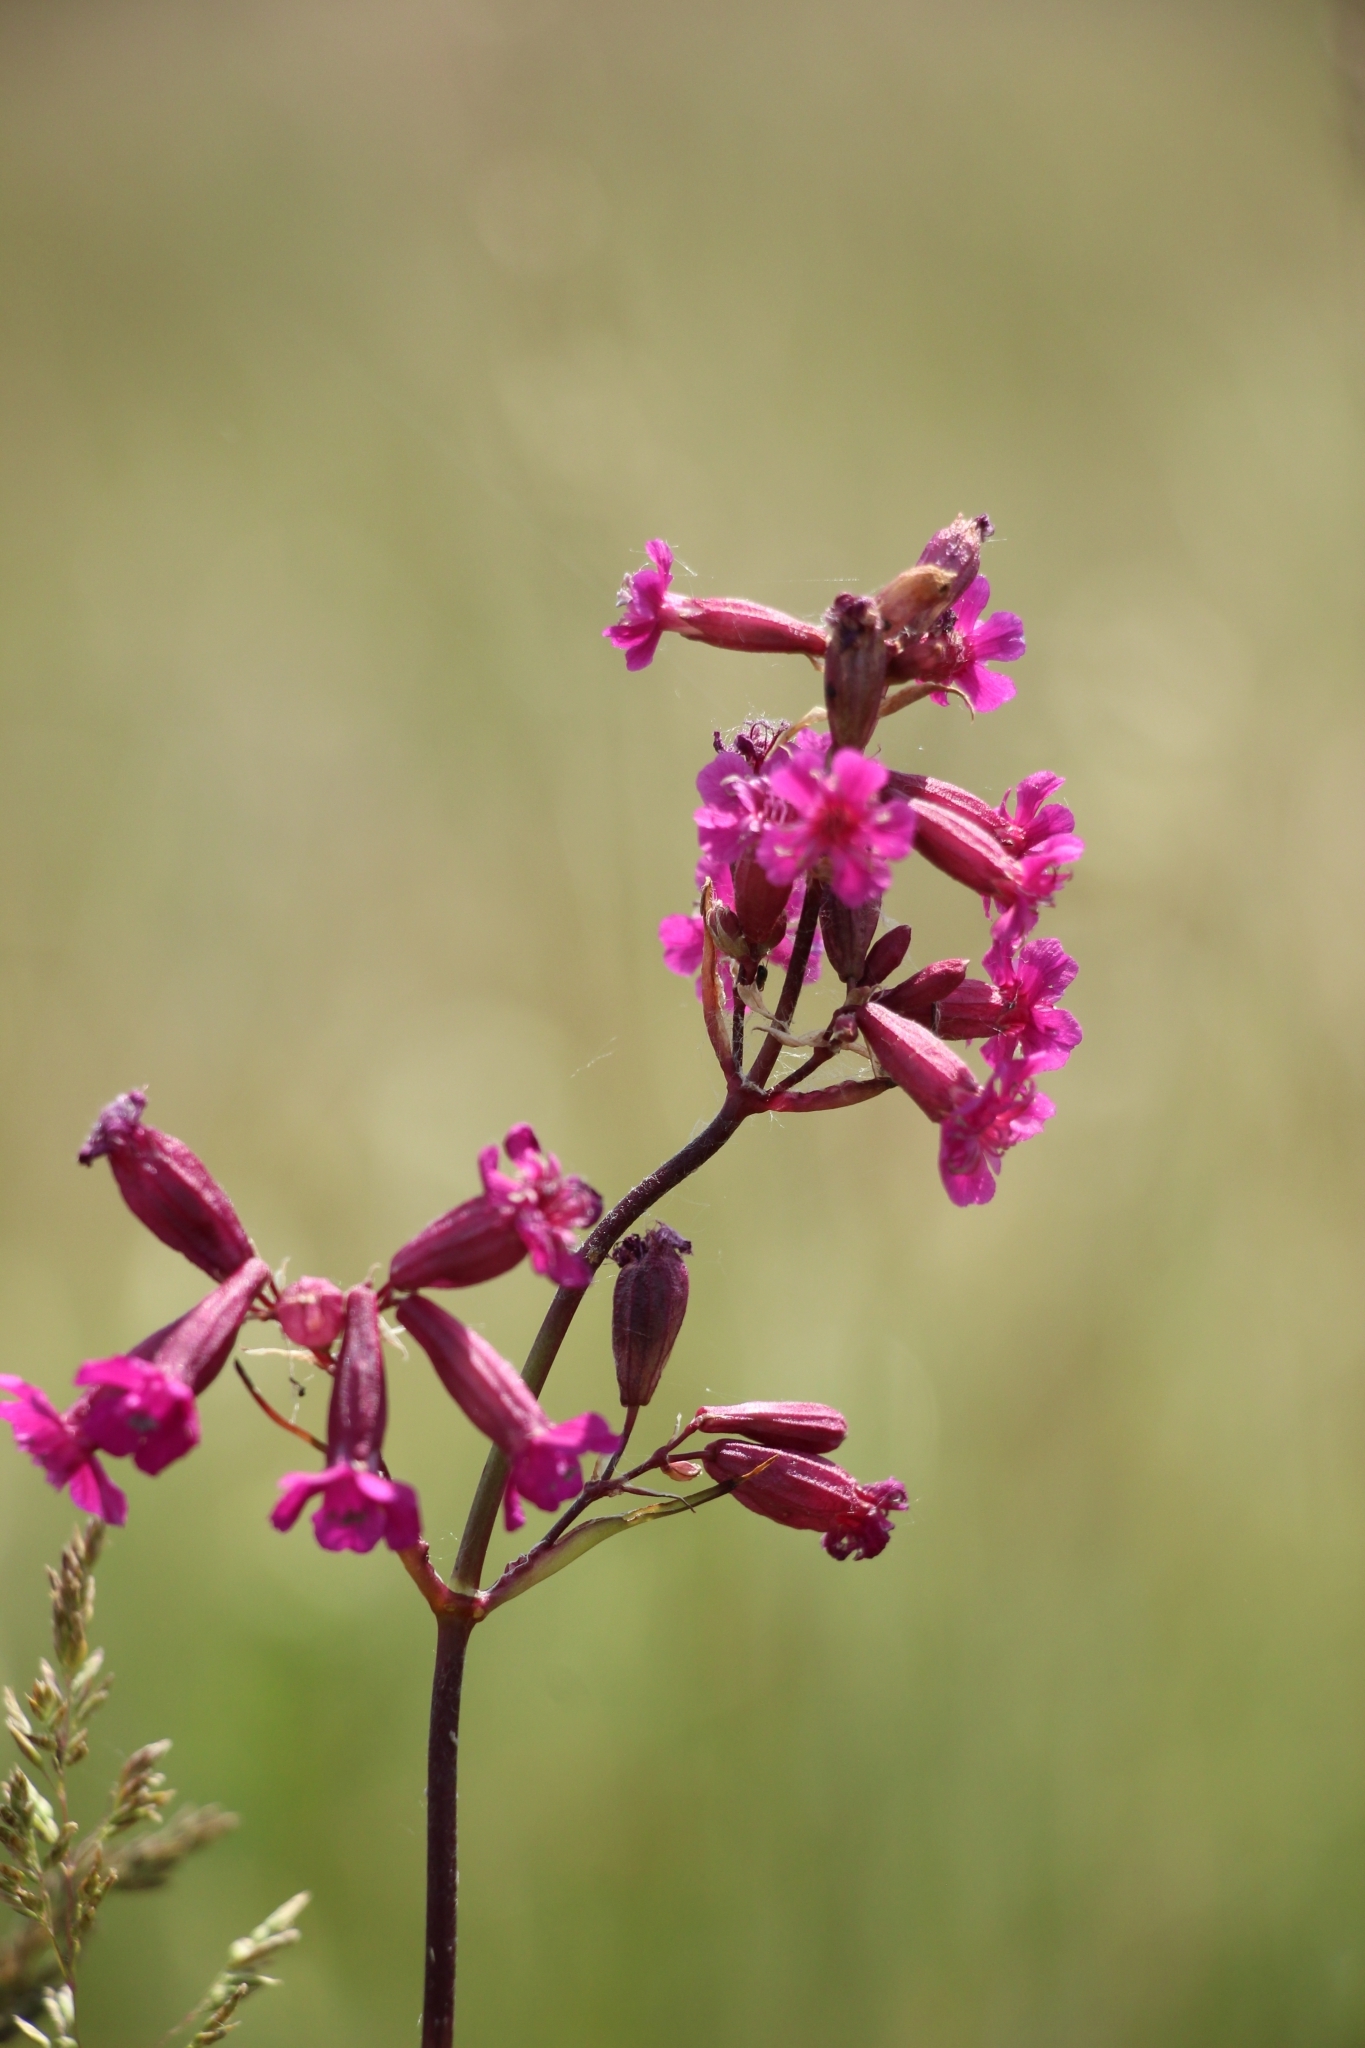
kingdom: Plantae
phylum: Tracheophyta
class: Magnoliopsida
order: Caryophyllales
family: Caryophyllaceae
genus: Viscaria
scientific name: Viscaria vulgaris
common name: Clammy campion
